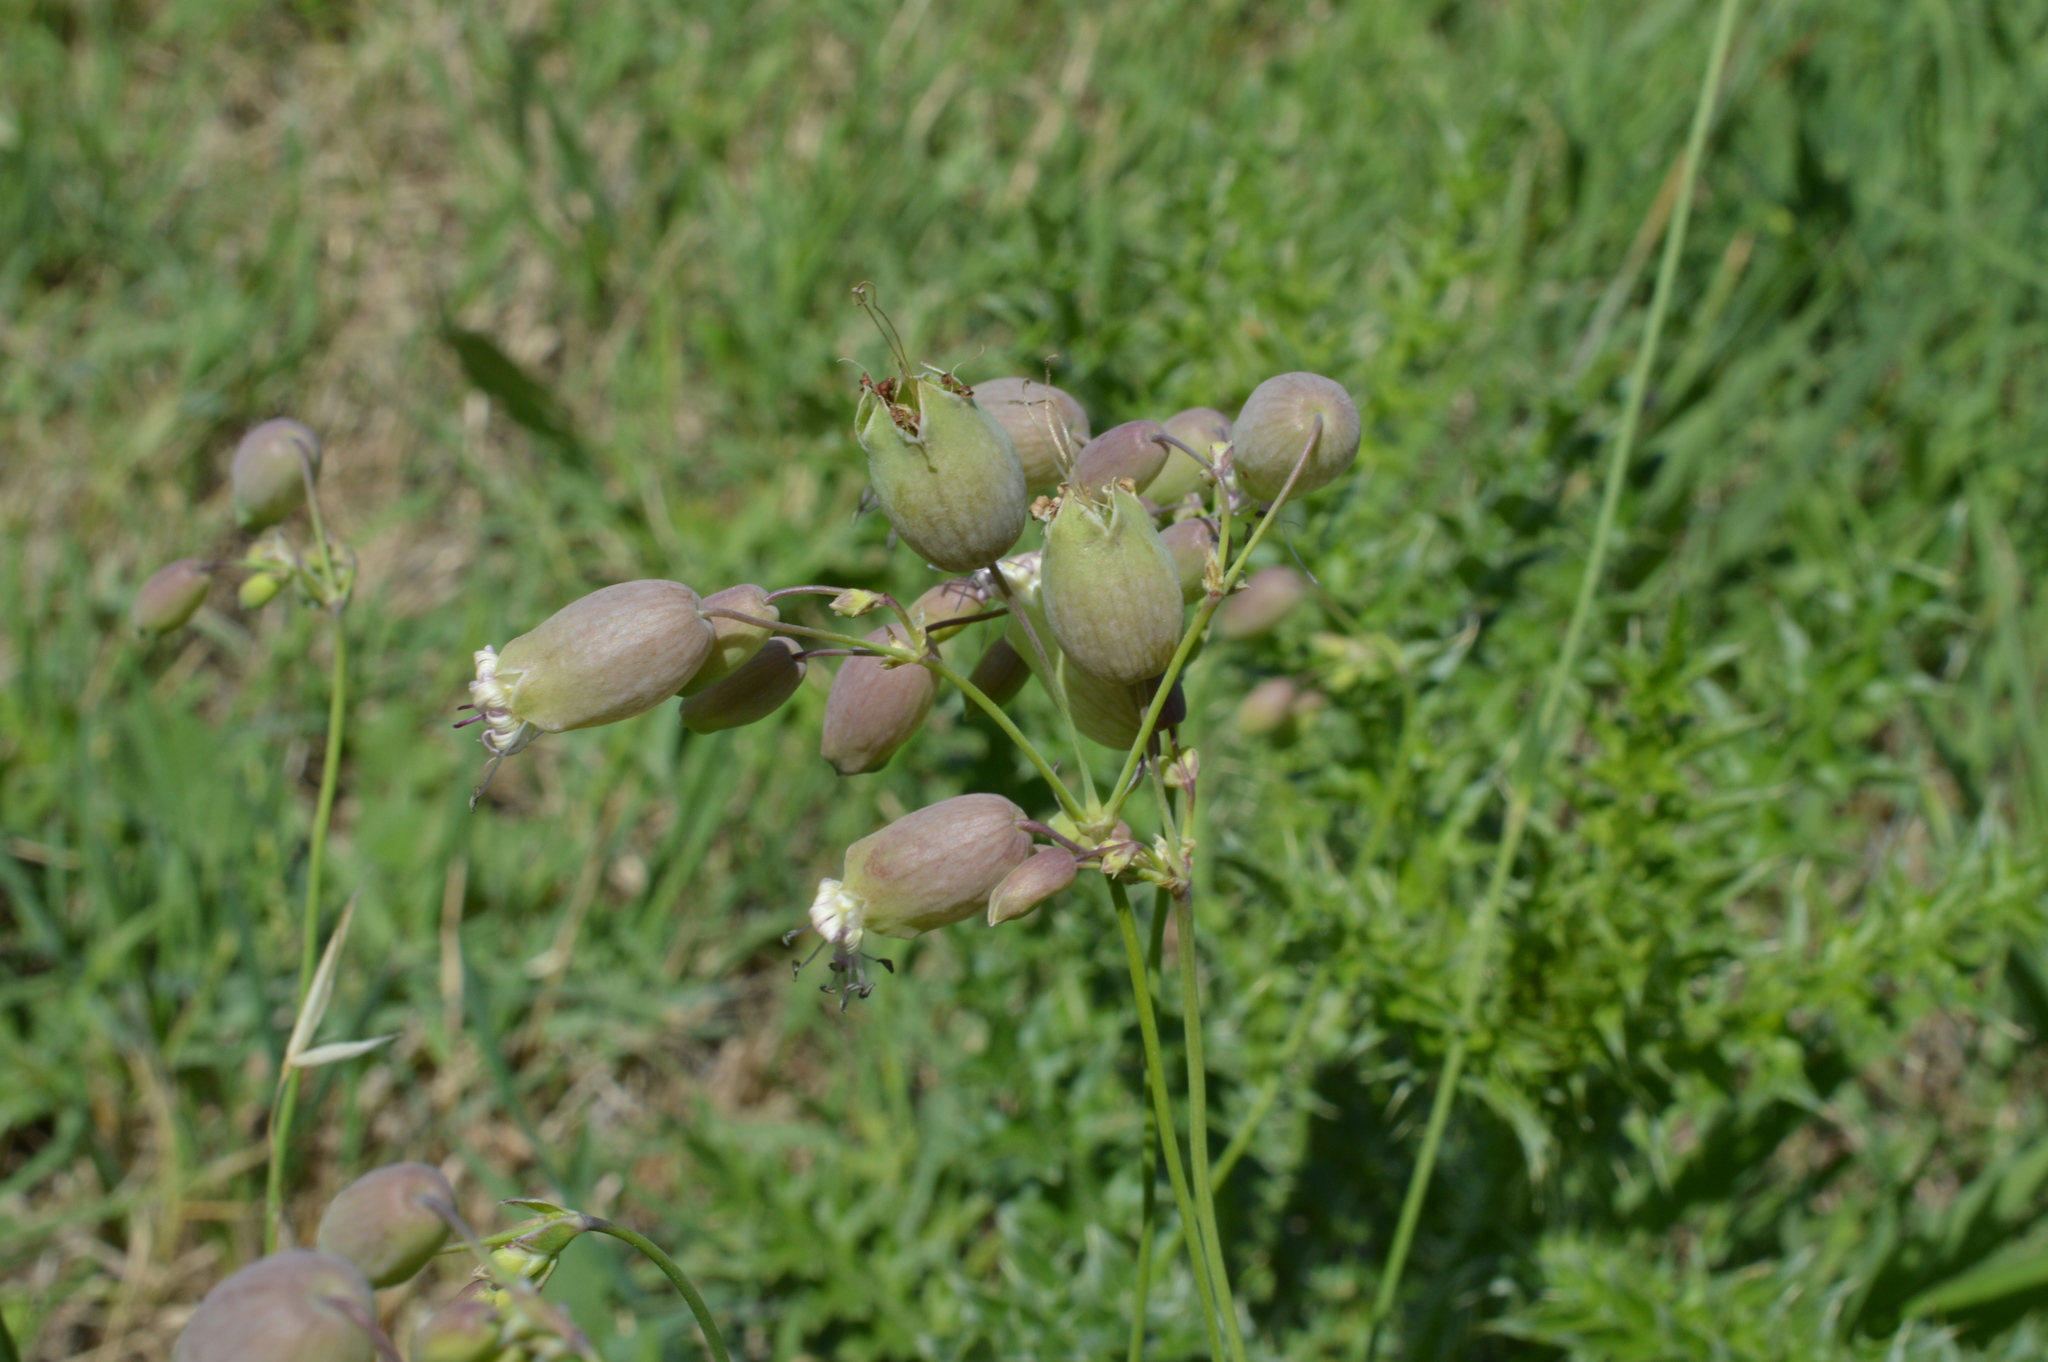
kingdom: Plantae
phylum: Tracheophyta
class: Magnoliopsida
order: Caryophyllales
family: Caryophyllaceae
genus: Silene
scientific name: Silene vulgaris
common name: Bladder campion
